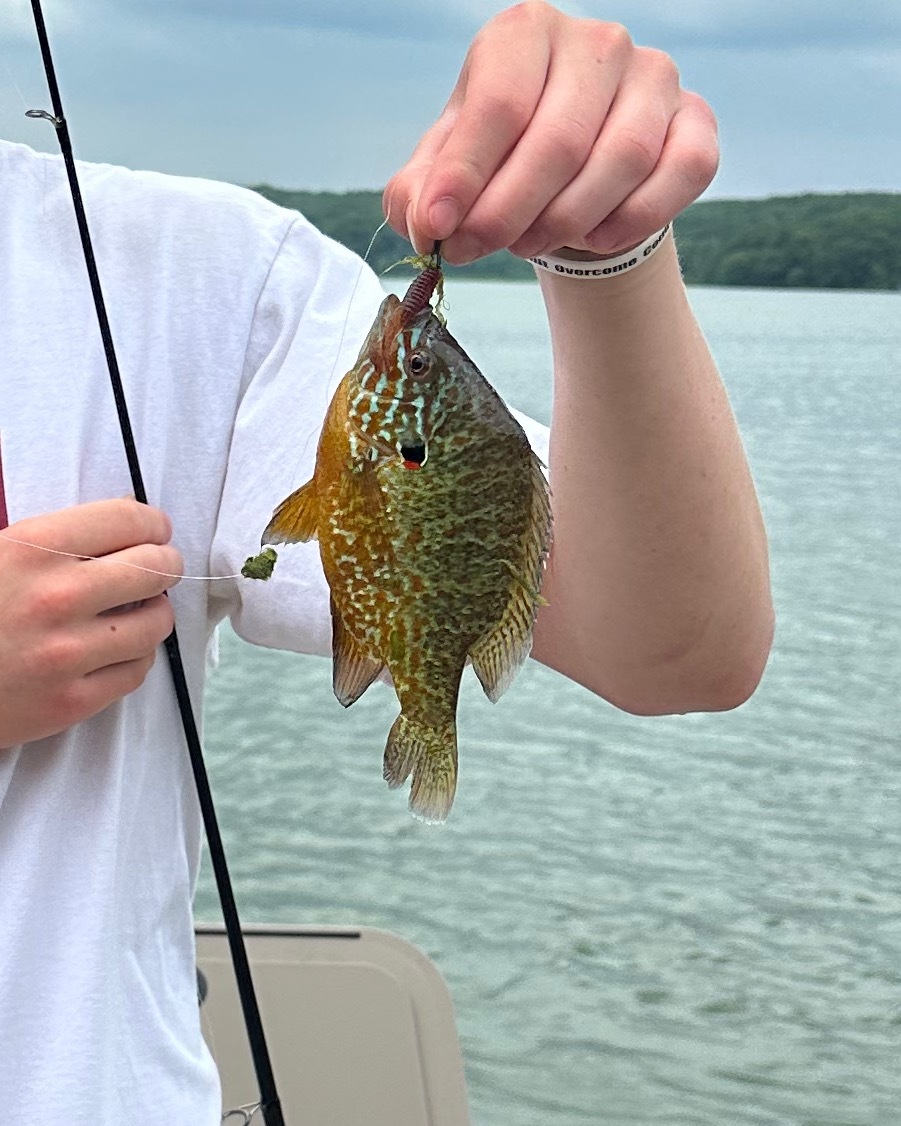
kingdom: Animalia
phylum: Chordata
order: Perciformes
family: Centrarchidae
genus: Lepomis
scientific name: Lepomis gibbosus
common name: Pumpkinseed
